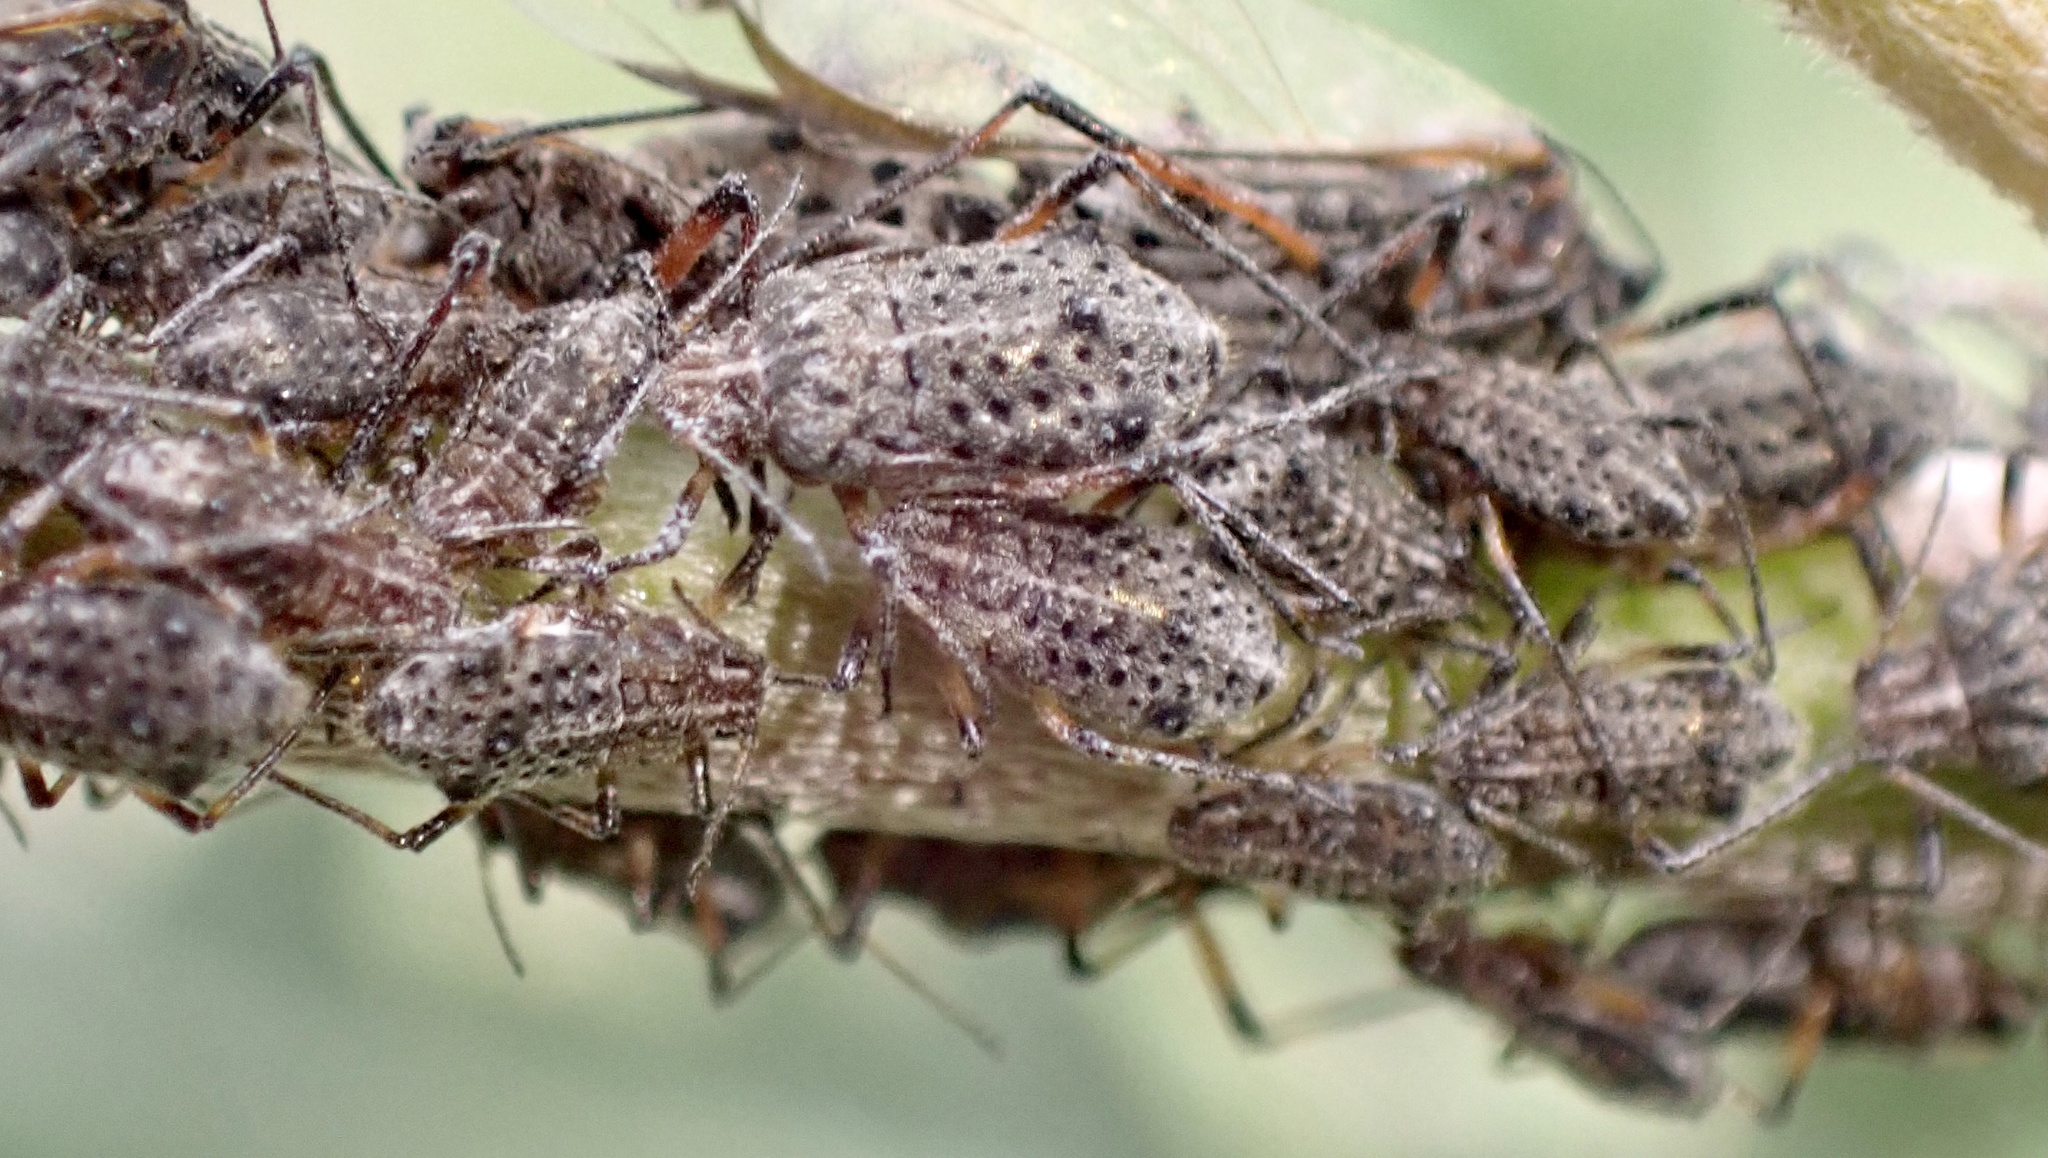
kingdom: Animalia
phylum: Arthropoda
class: Insecta
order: Hemiptera
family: Aphididae
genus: Tuberolachnus
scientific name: Tuberolachnus salignus
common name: Giant willow aphid
